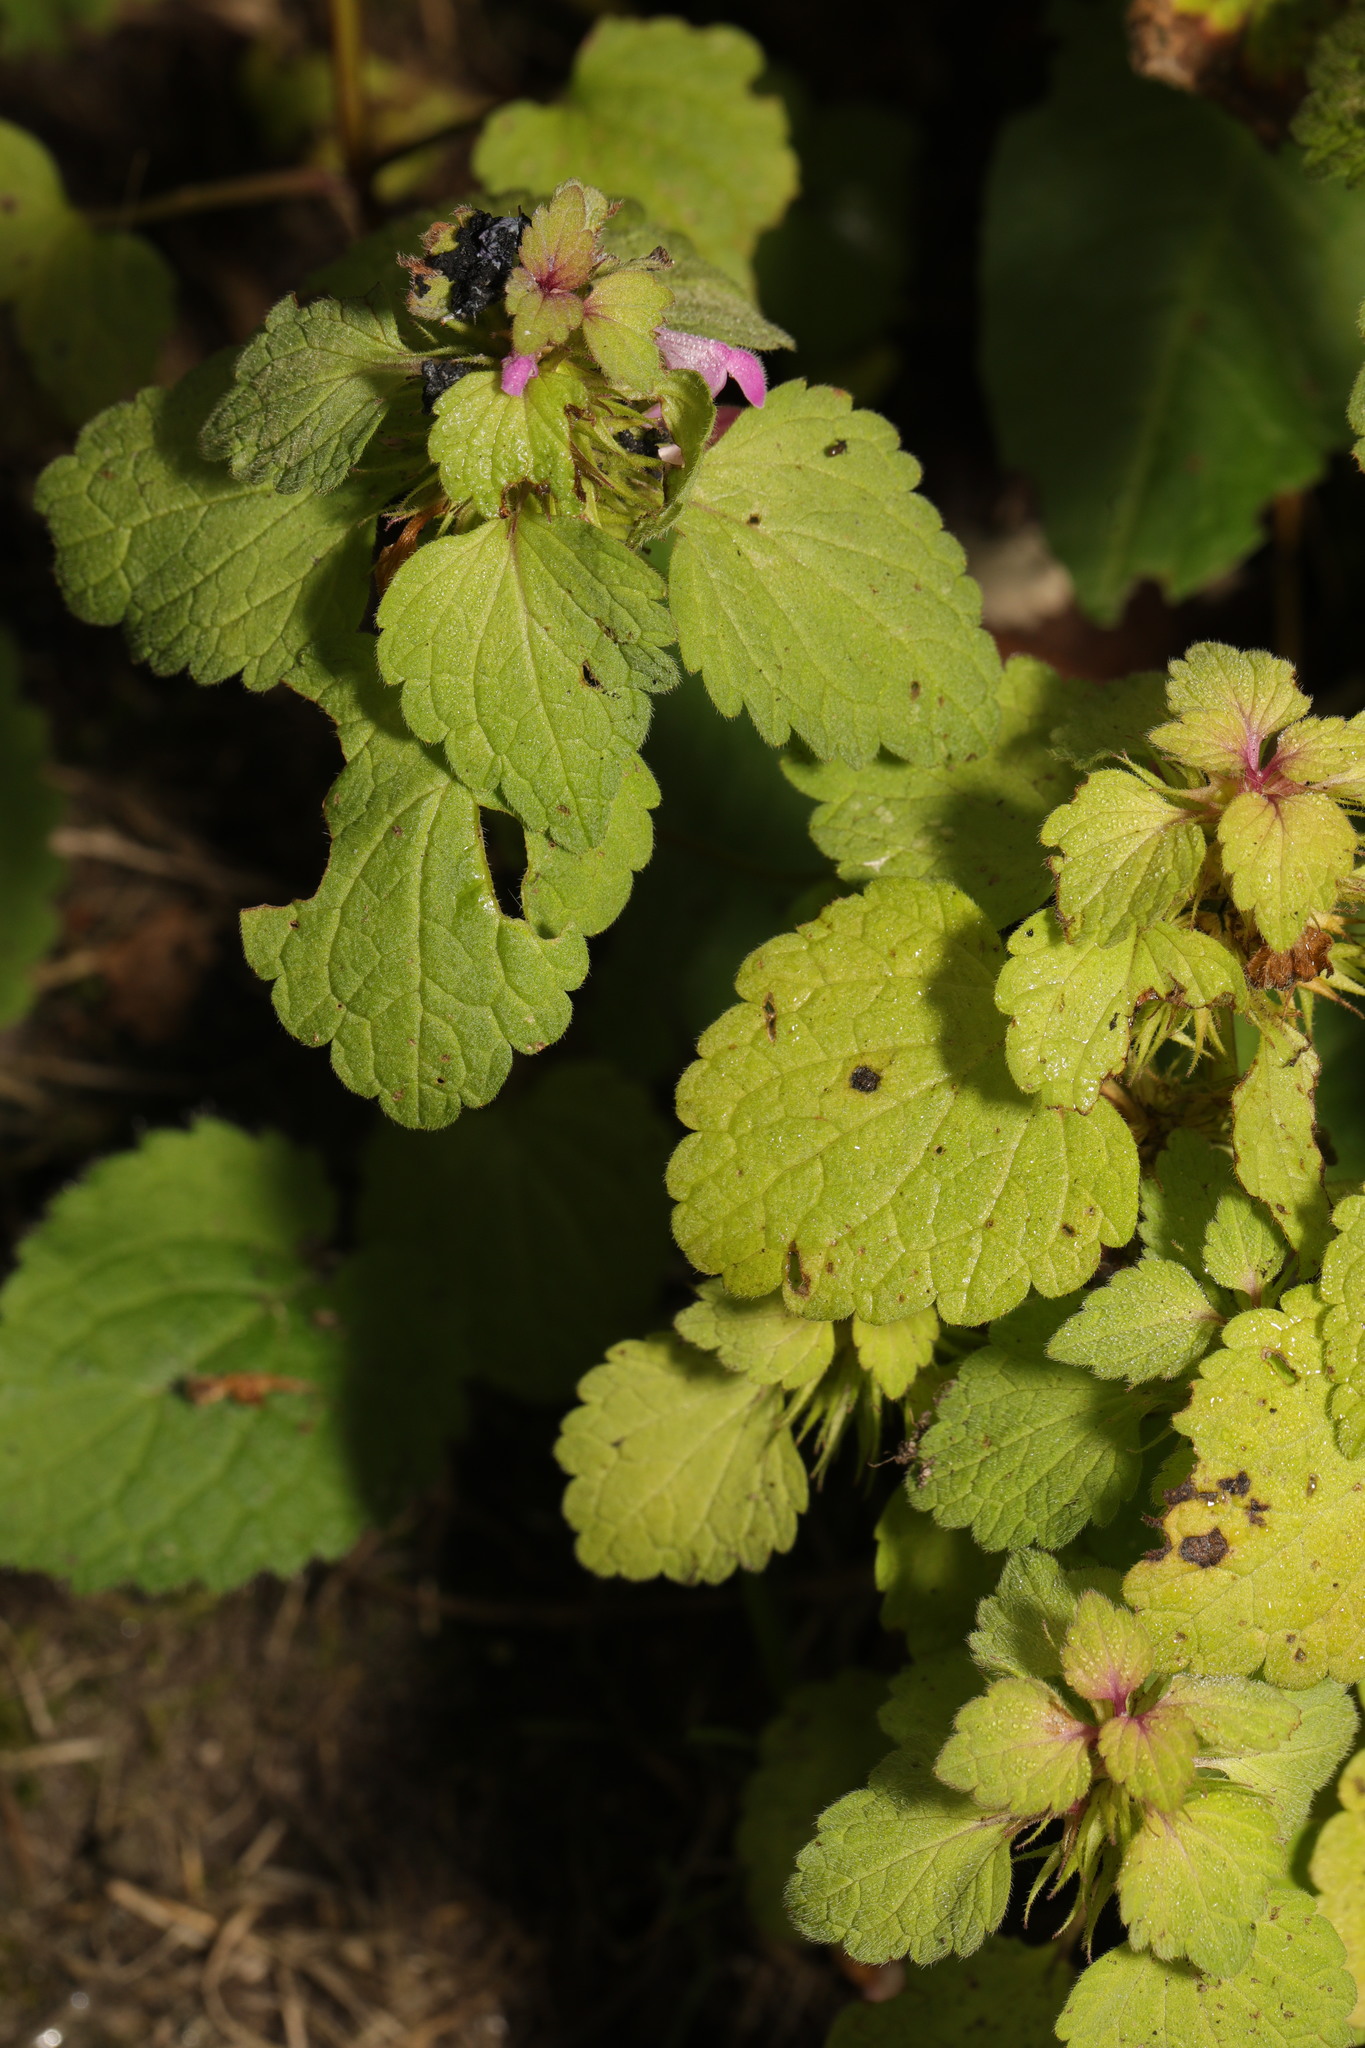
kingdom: Plantae
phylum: Tracheophyta
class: Magnoliopsida
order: Lamiales
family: Lamiaceae
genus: Lamium
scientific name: Lamium purpureum
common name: Red dead-nettle
